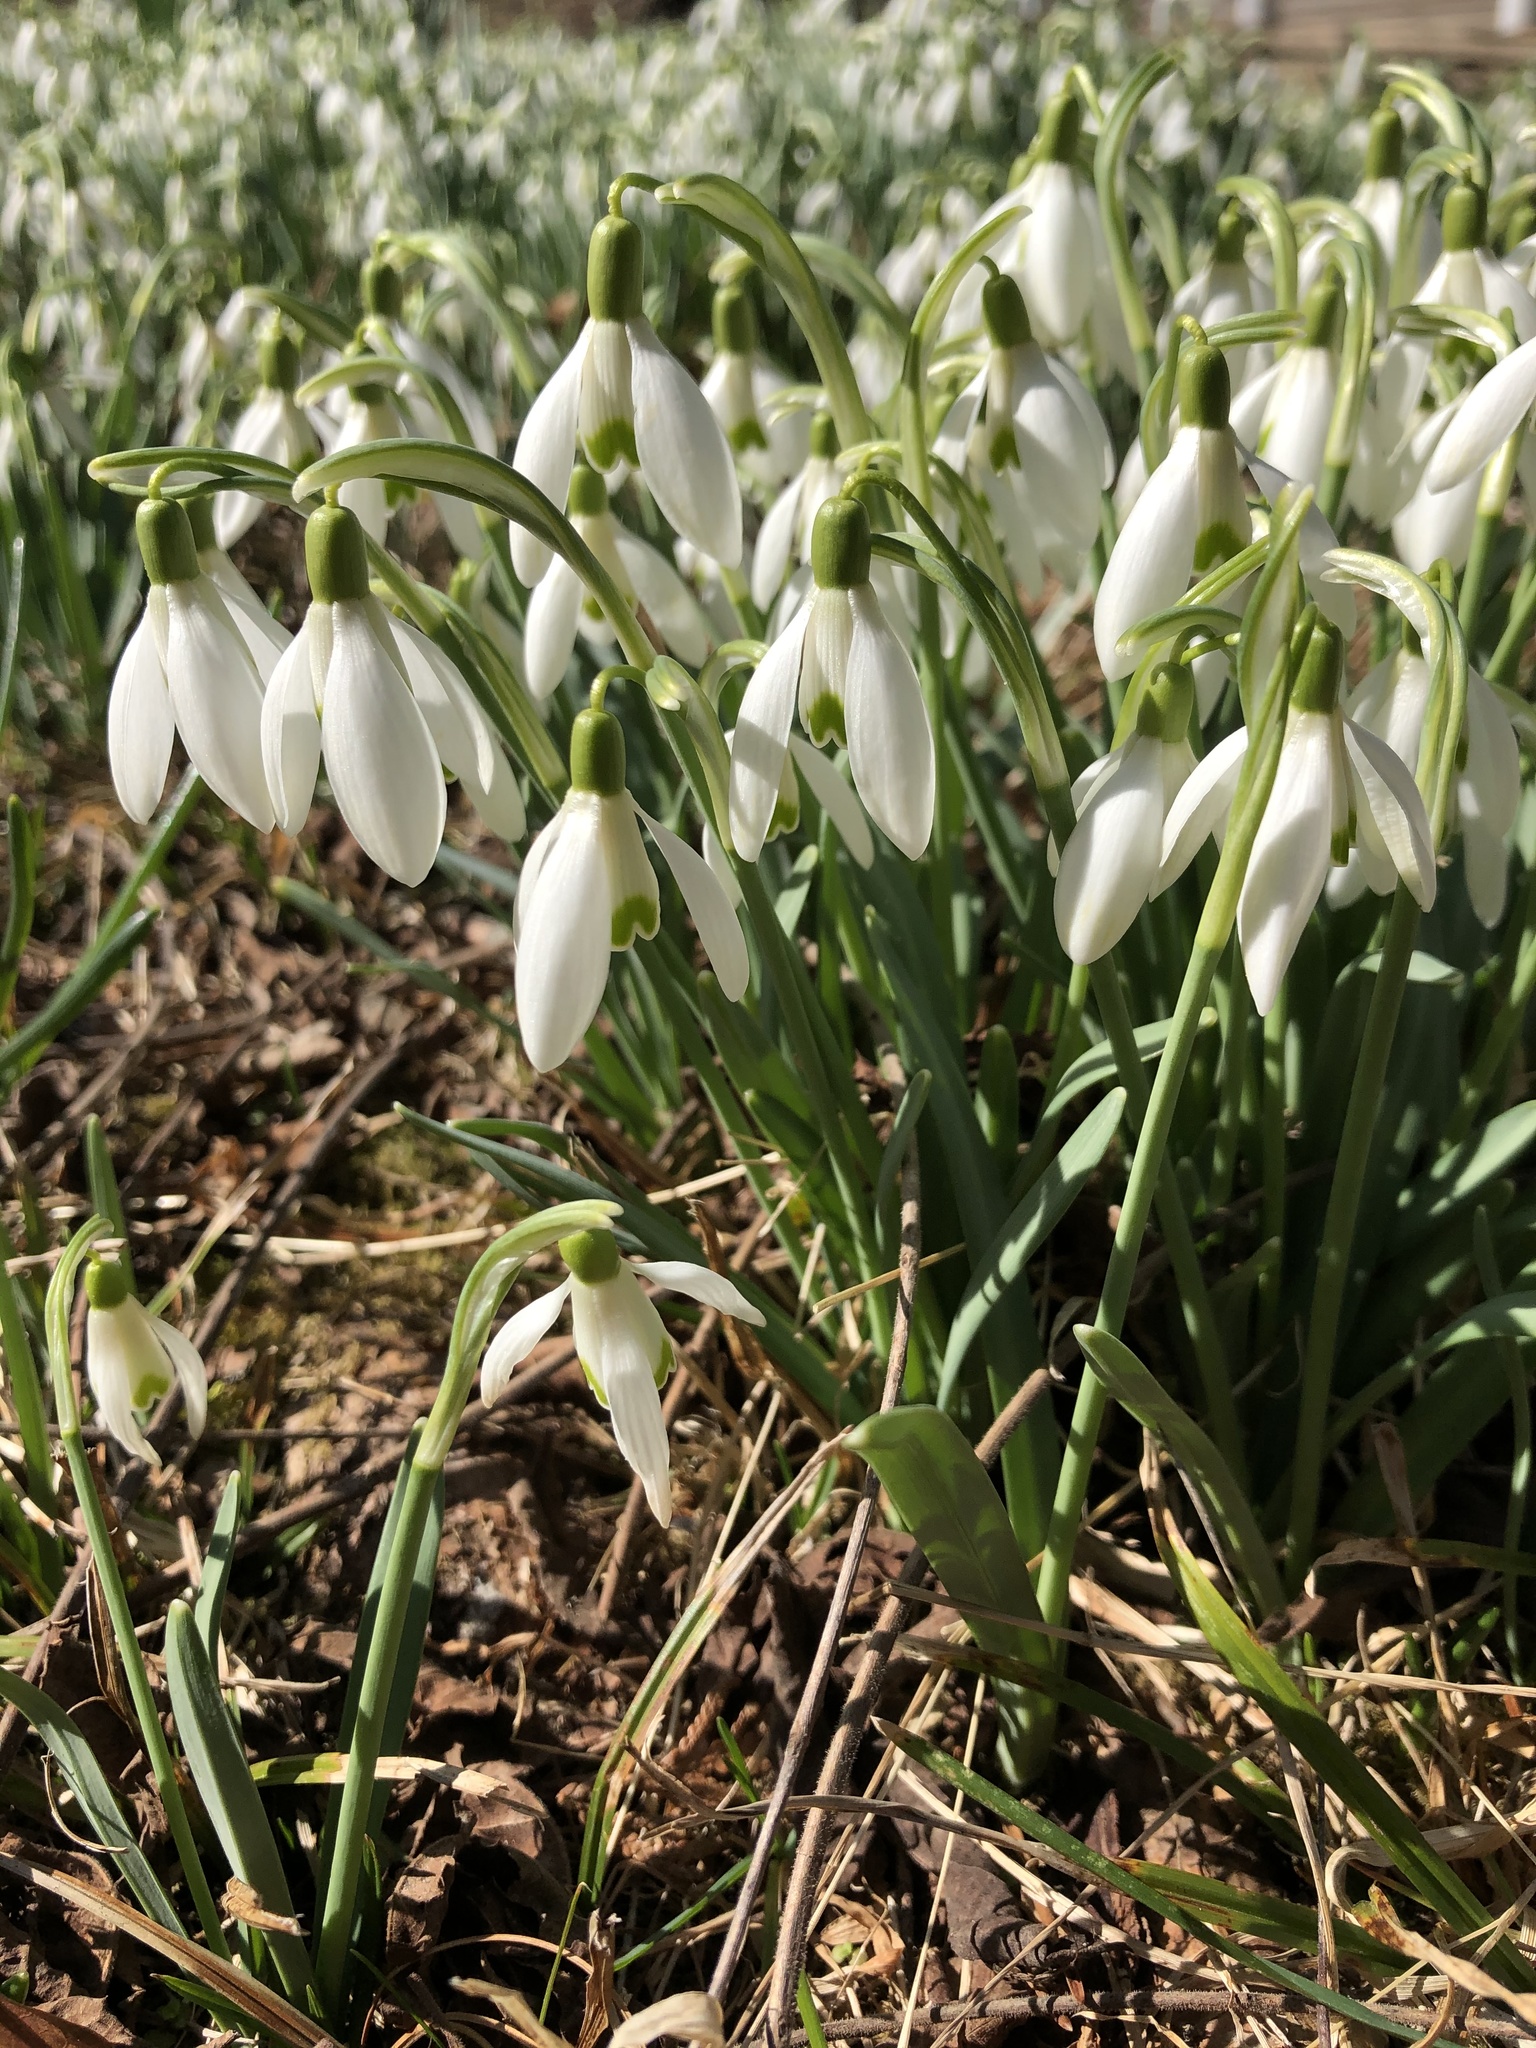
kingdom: Plantae
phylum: Tracheophyta
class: Liliopsida
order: Asparagales
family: Amaryllidaceae
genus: Galanthus
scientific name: Galanthus nivalis
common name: Snowdrop
